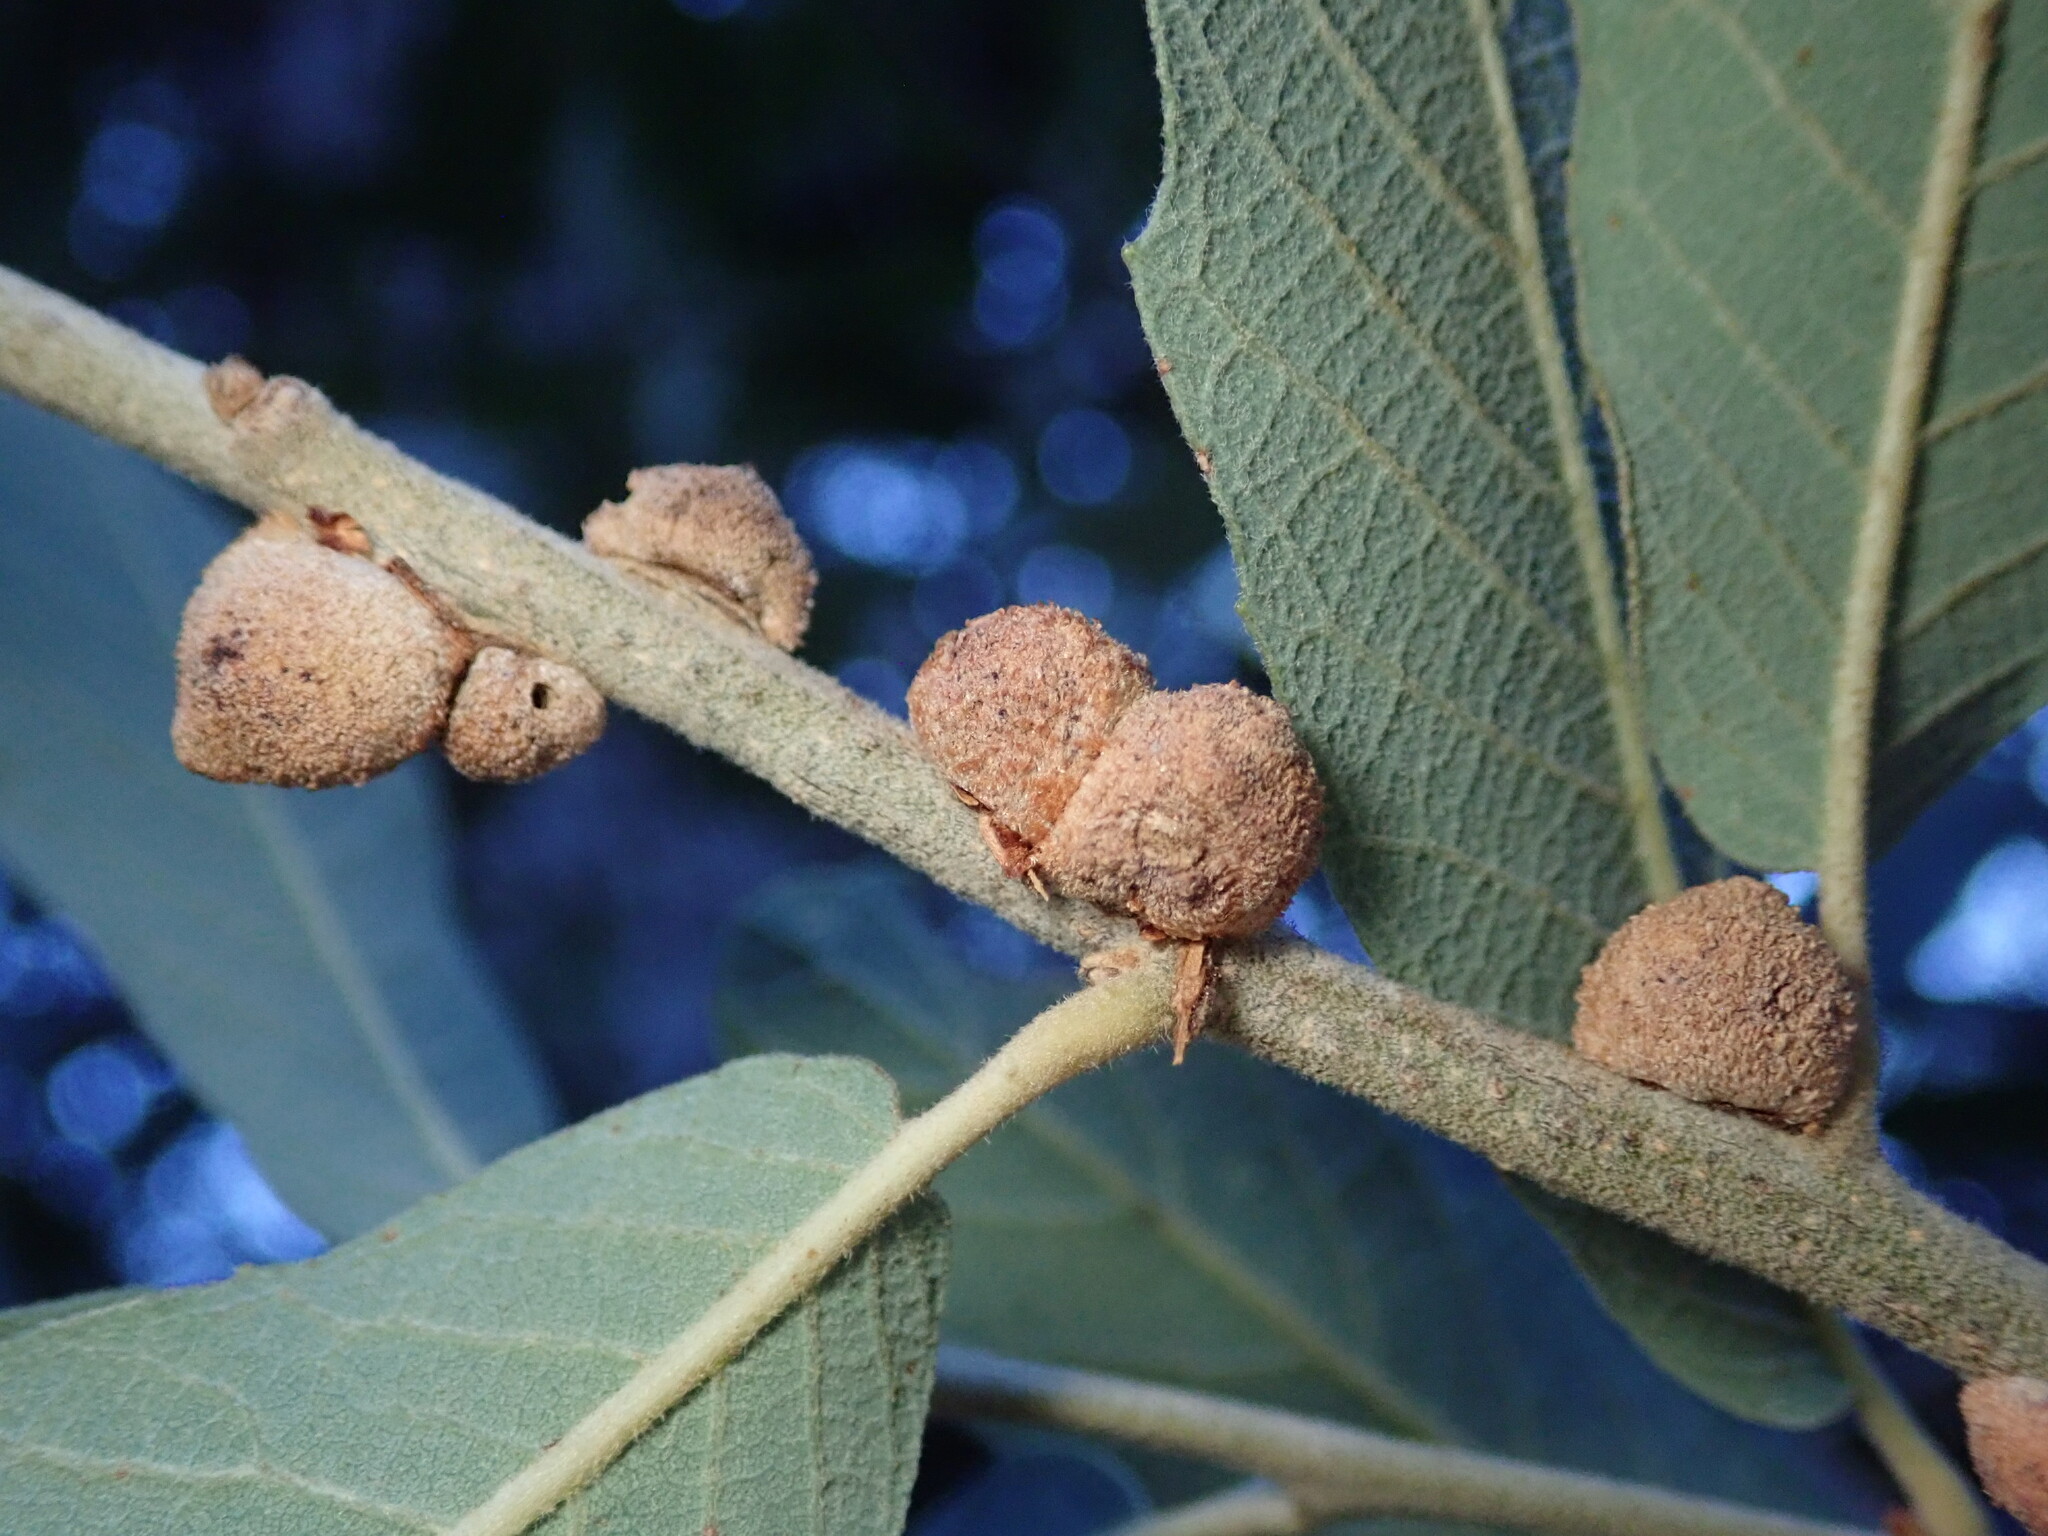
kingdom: Animalia
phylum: Arthropoda
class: Insecta
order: Hymenoptera
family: Cynipidae
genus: Disholcaspis
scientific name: Disholcaspis
